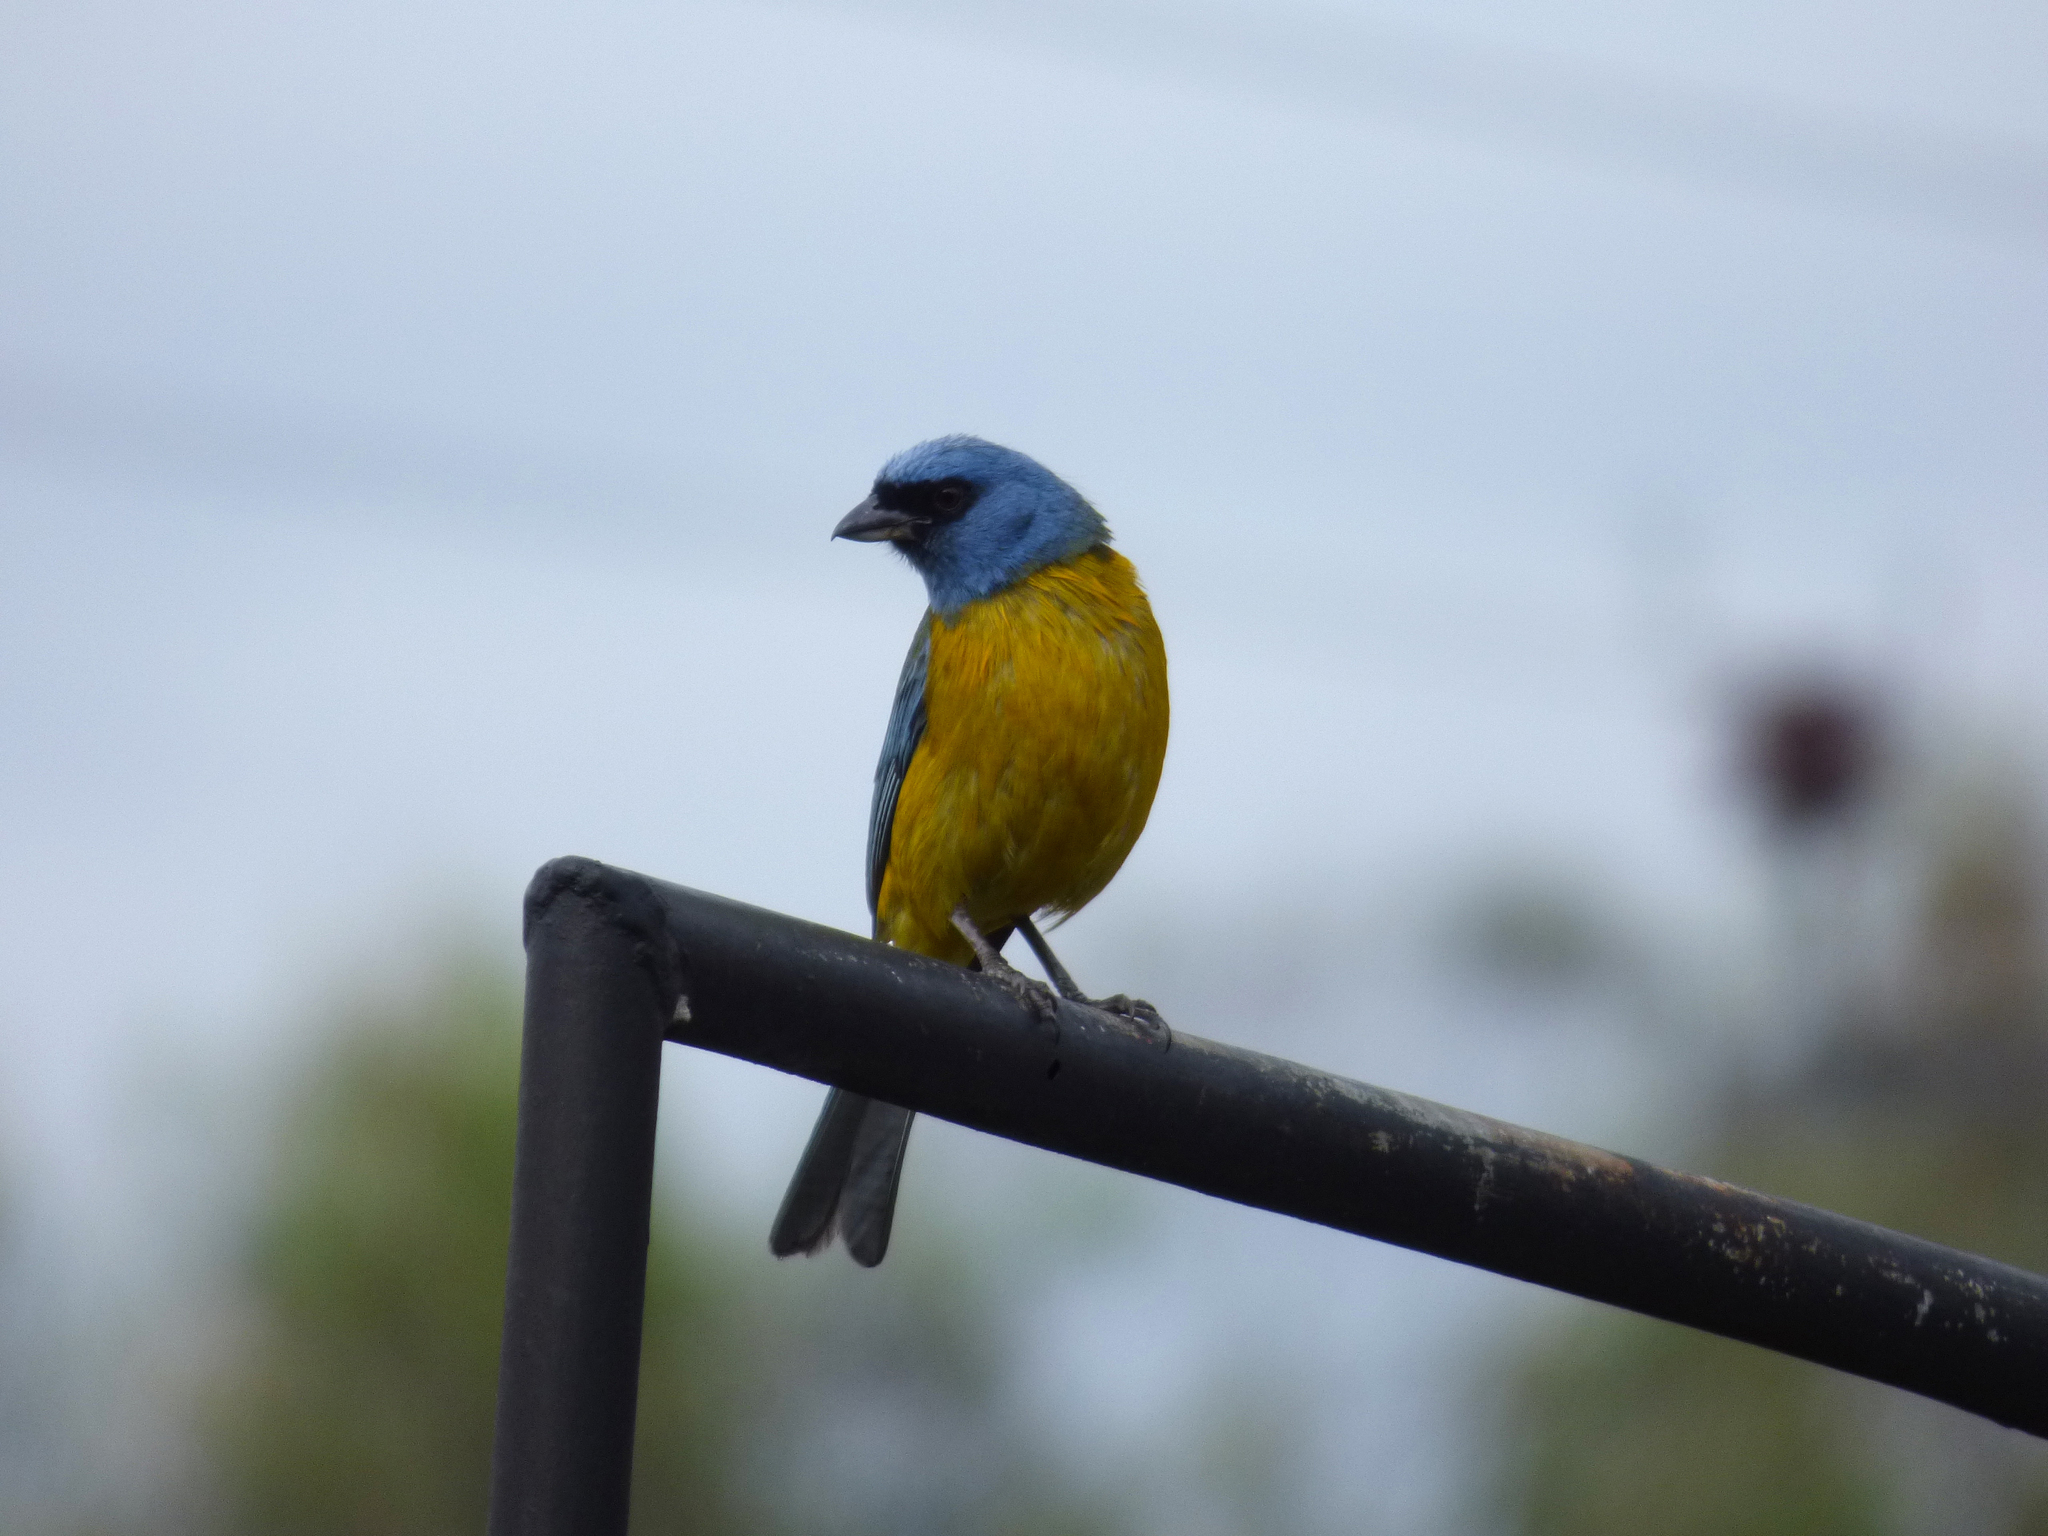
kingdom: Animalia
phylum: Chordata
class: Aves
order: Passeriformes
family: Thraupidae
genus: Rauenia
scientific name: Rauenia bonariensis
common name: Blue-and-yellow tanager
